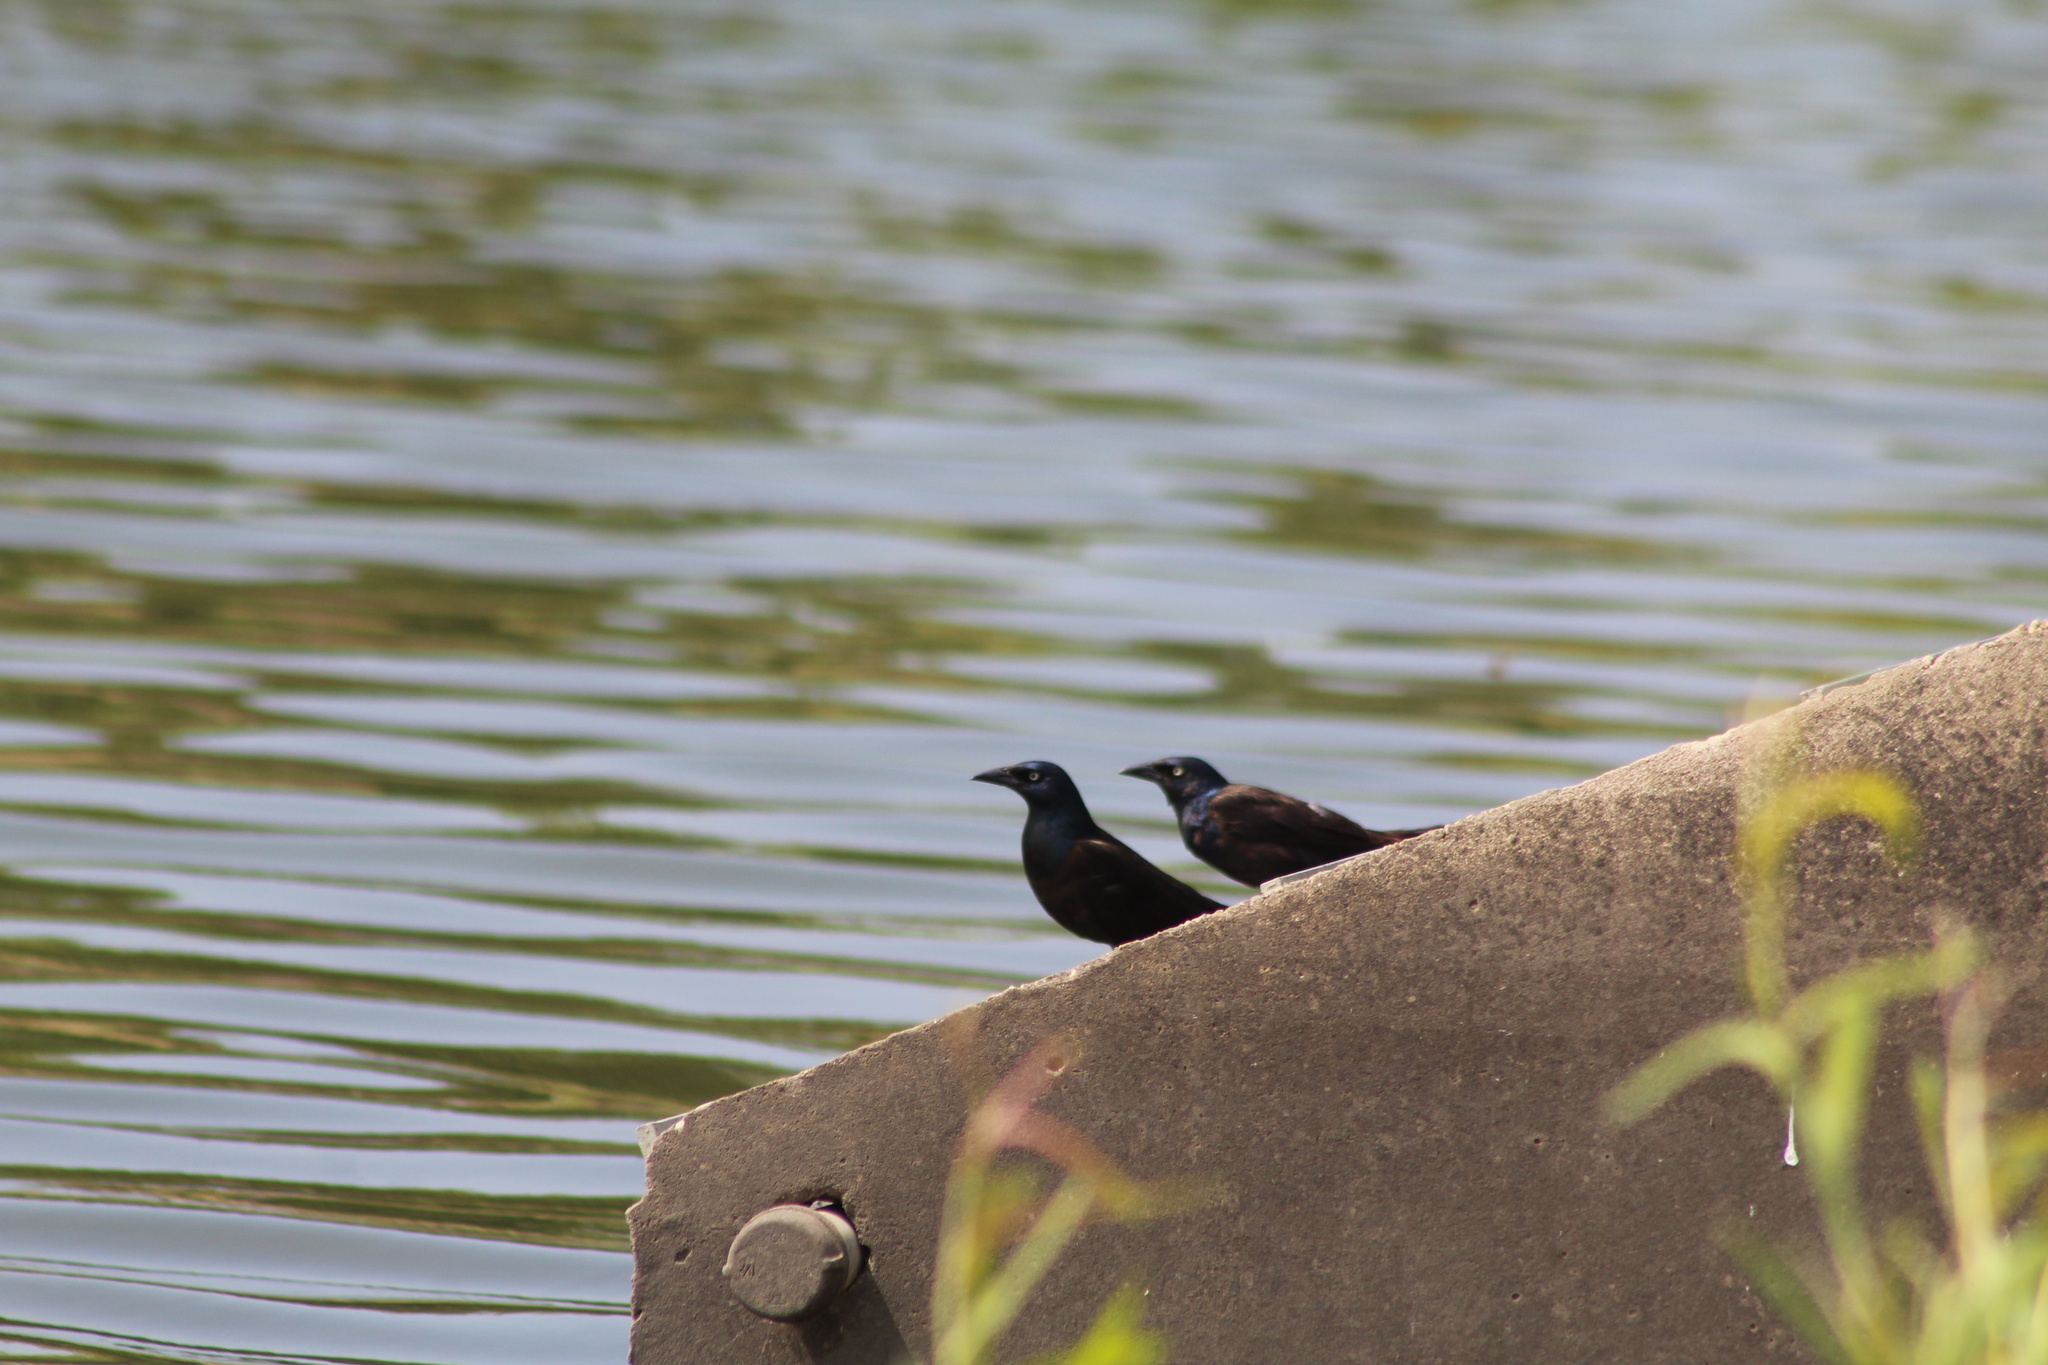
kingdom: Animalia
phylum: Chordata
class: Aves
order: Passeriformes
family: Icteridae
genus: Quiscalus
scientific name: Quiscalus quiscula
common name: Common grackle
